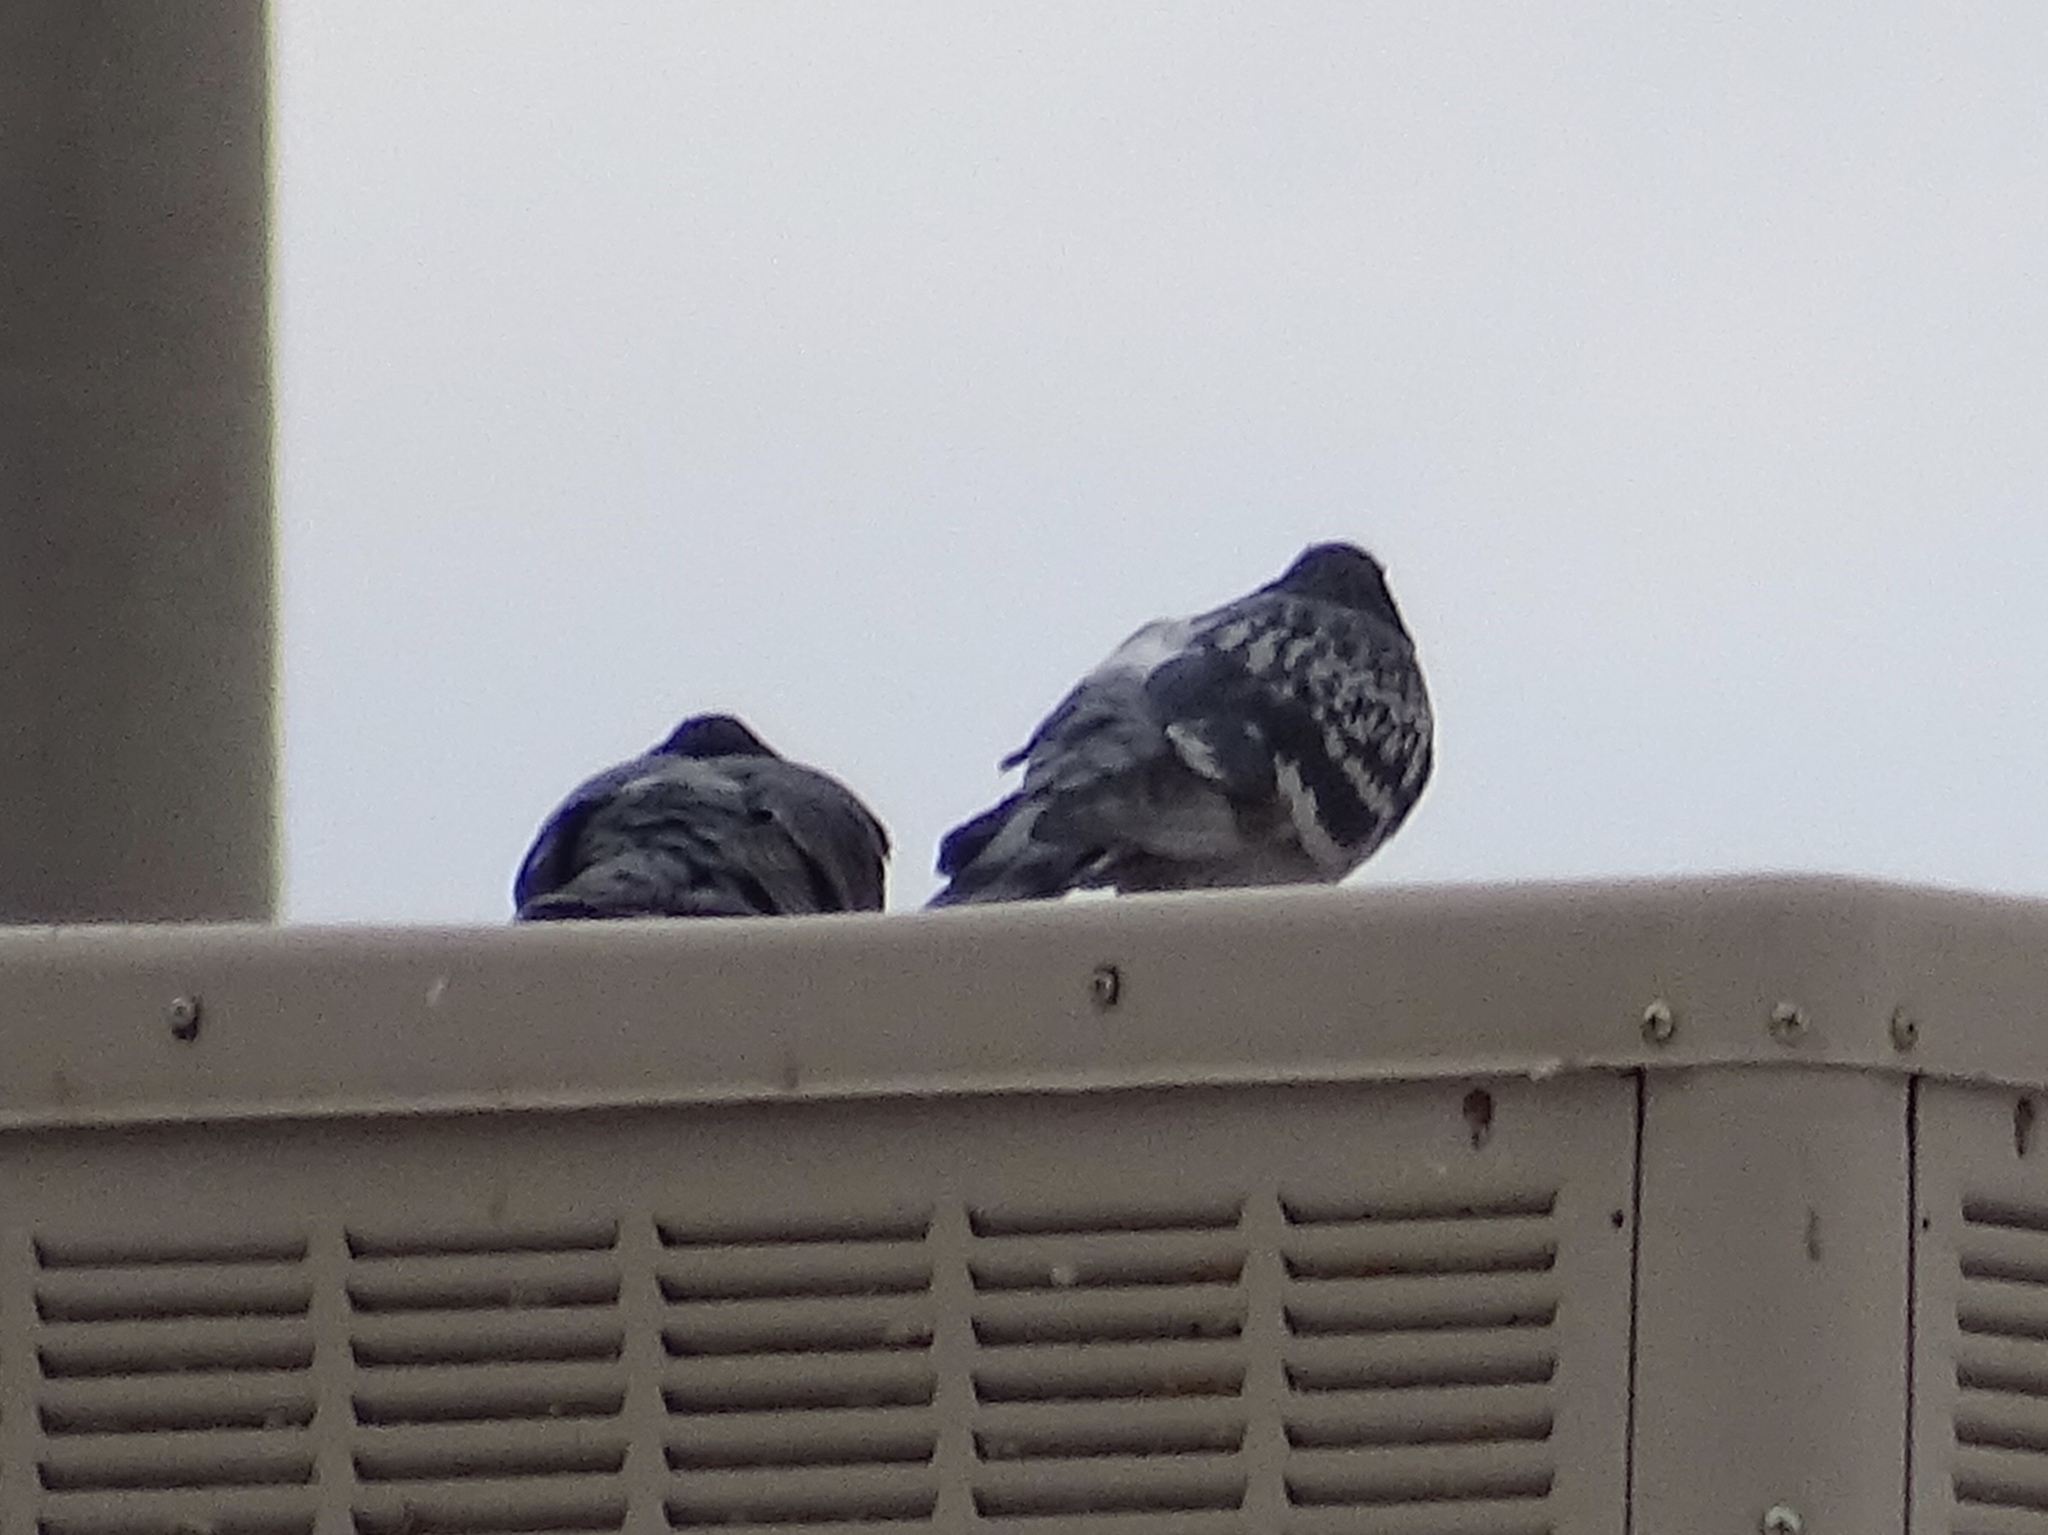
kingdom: Animalia
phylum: Chordata
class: Aves
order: Columbiformes
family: Columbidae
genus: Columba
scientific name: Columba livia
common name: Rock pigeon
